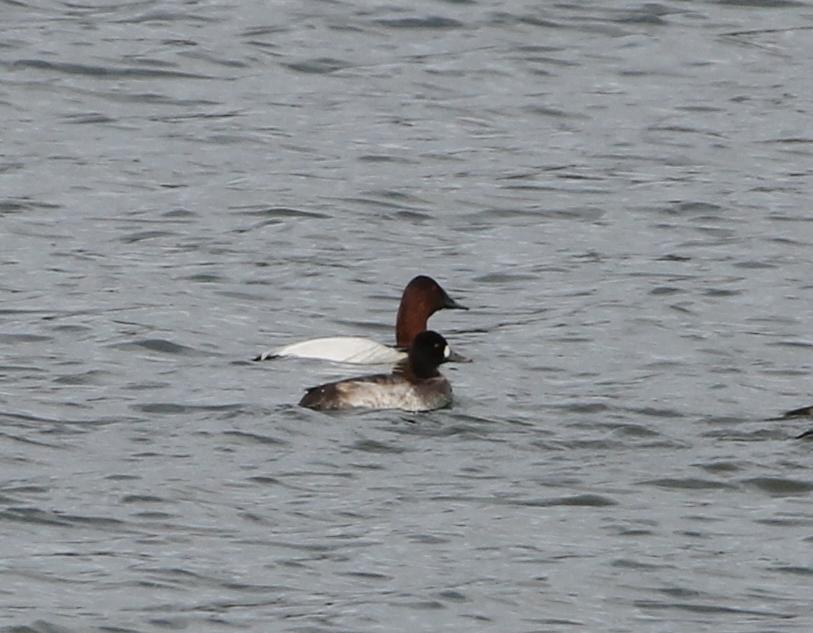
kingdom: Animalia
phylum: Chordata
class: Aves
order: Anseriformes
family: Anatidae
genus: Aythya
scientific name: Aythya valisineria
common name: Canvasback
